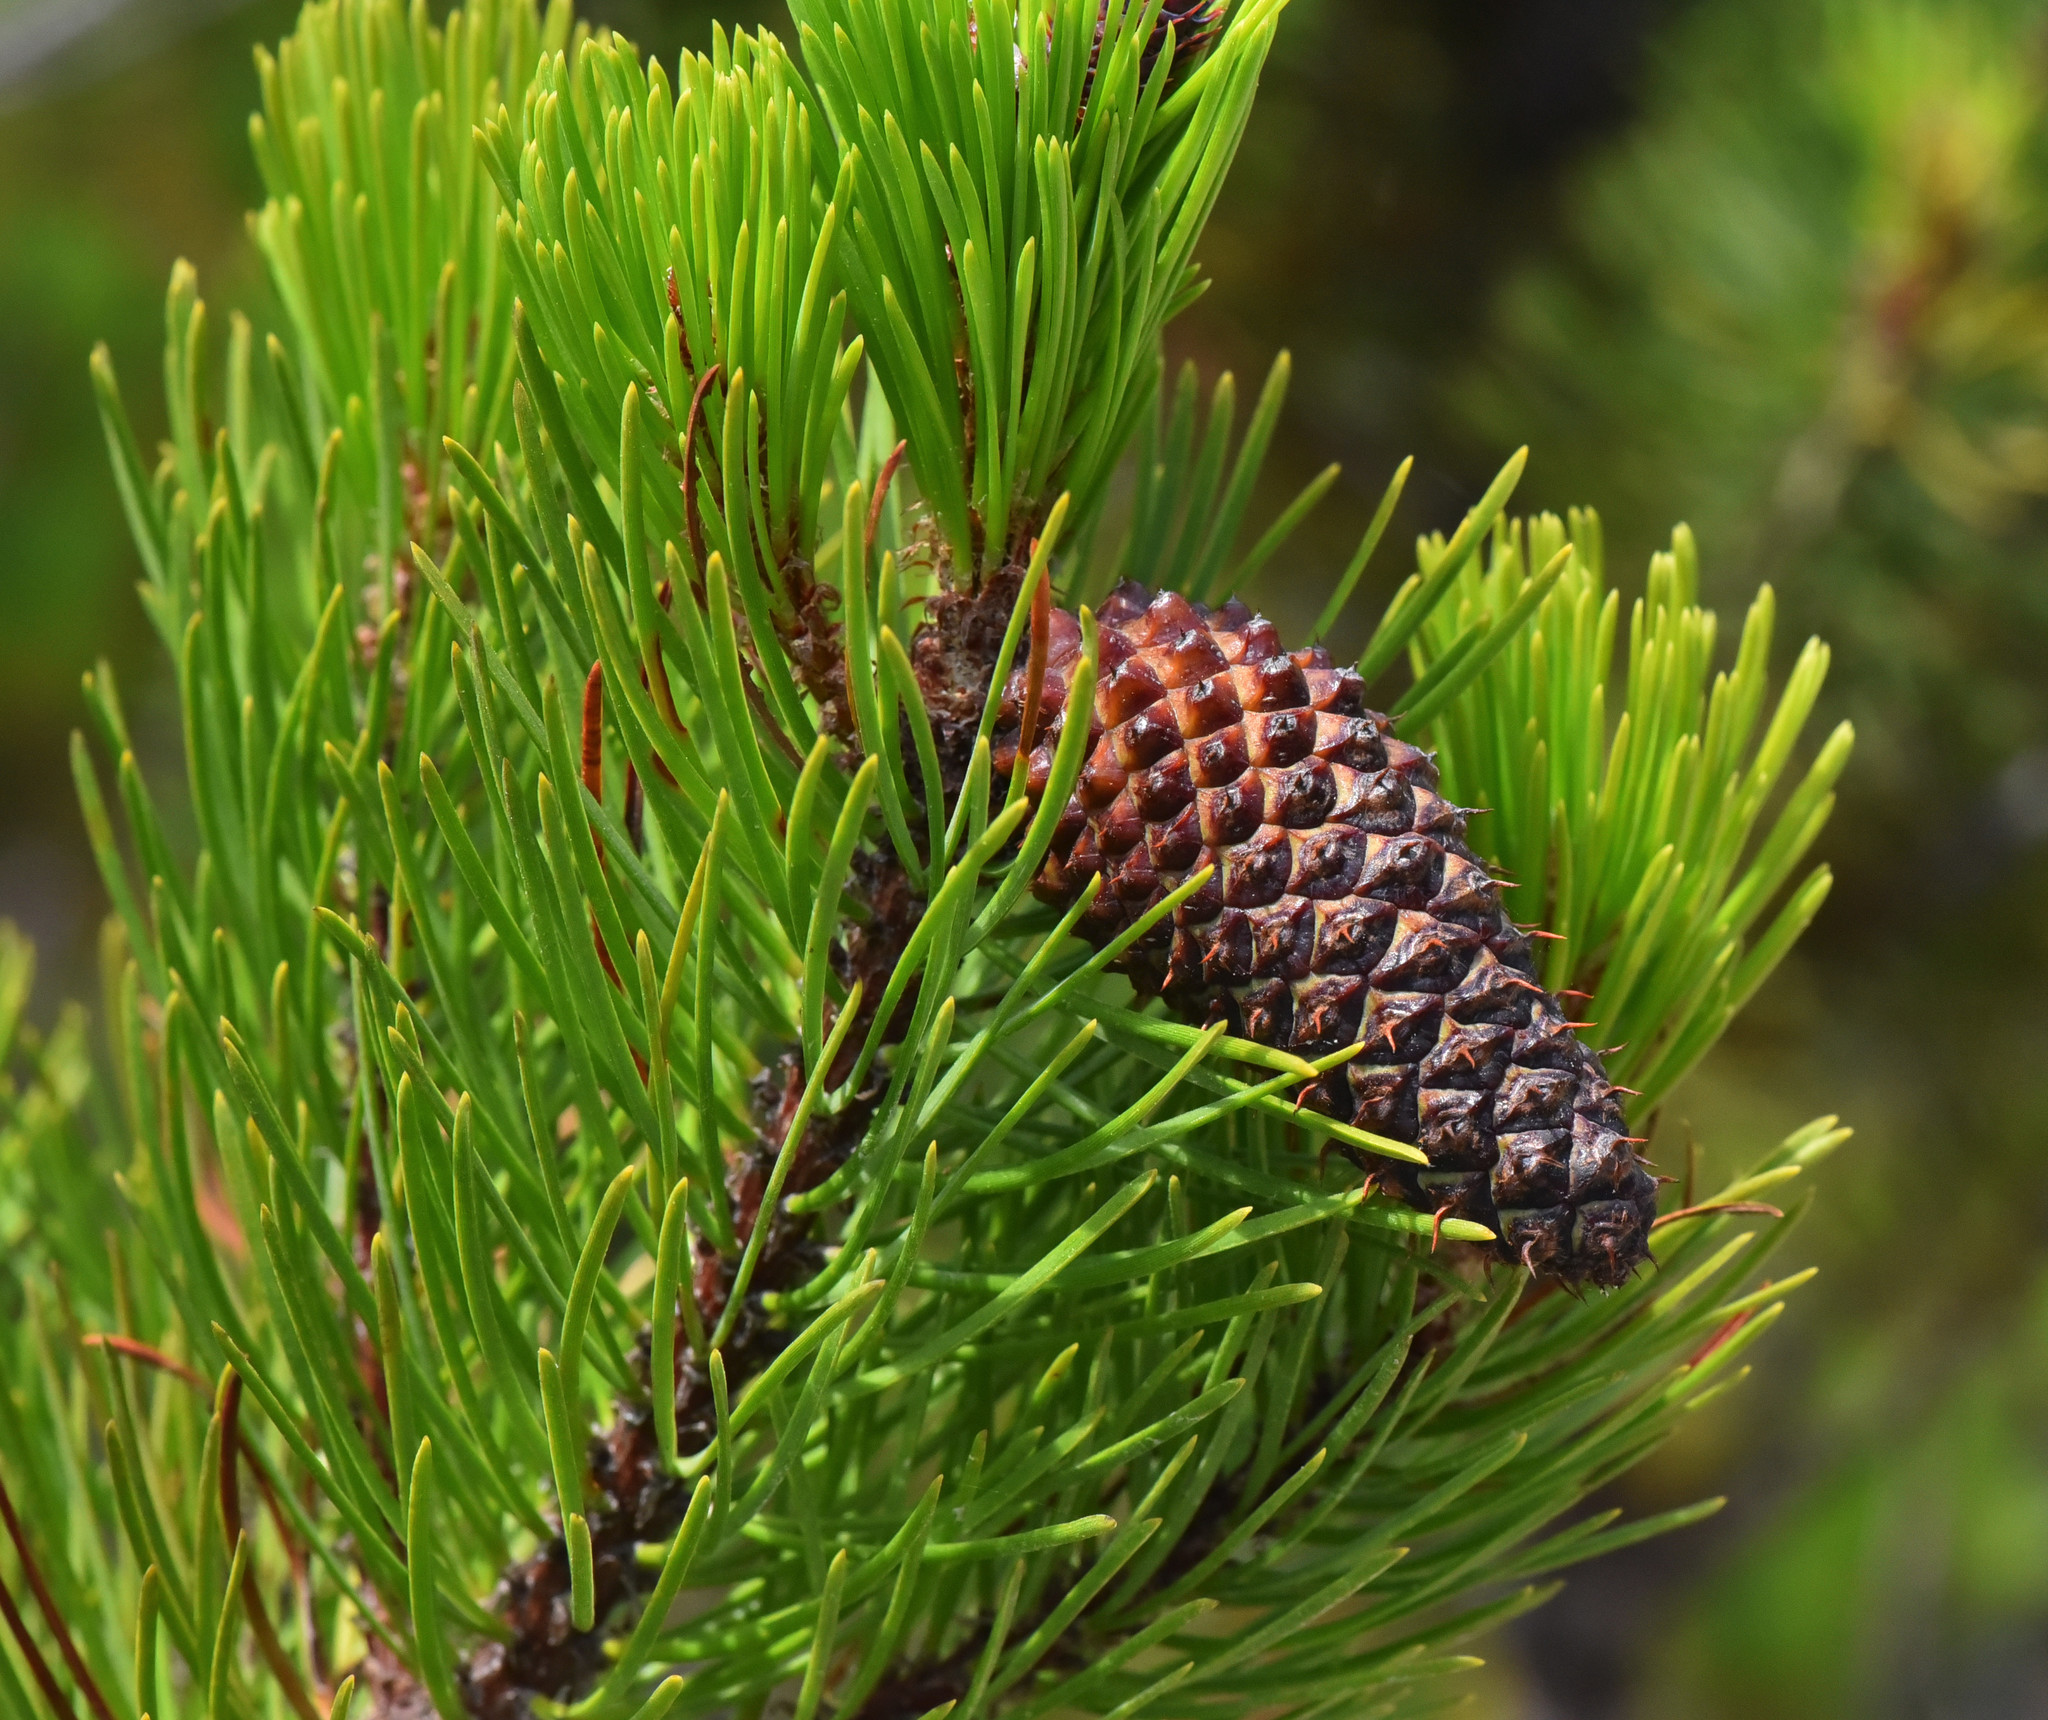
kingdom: Plantae
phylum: Tracheophyta
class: Pinopsida
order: Pinales
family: Pinaceae
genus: Pinus
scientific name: Pinus contorta
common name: Lodgepole pine
